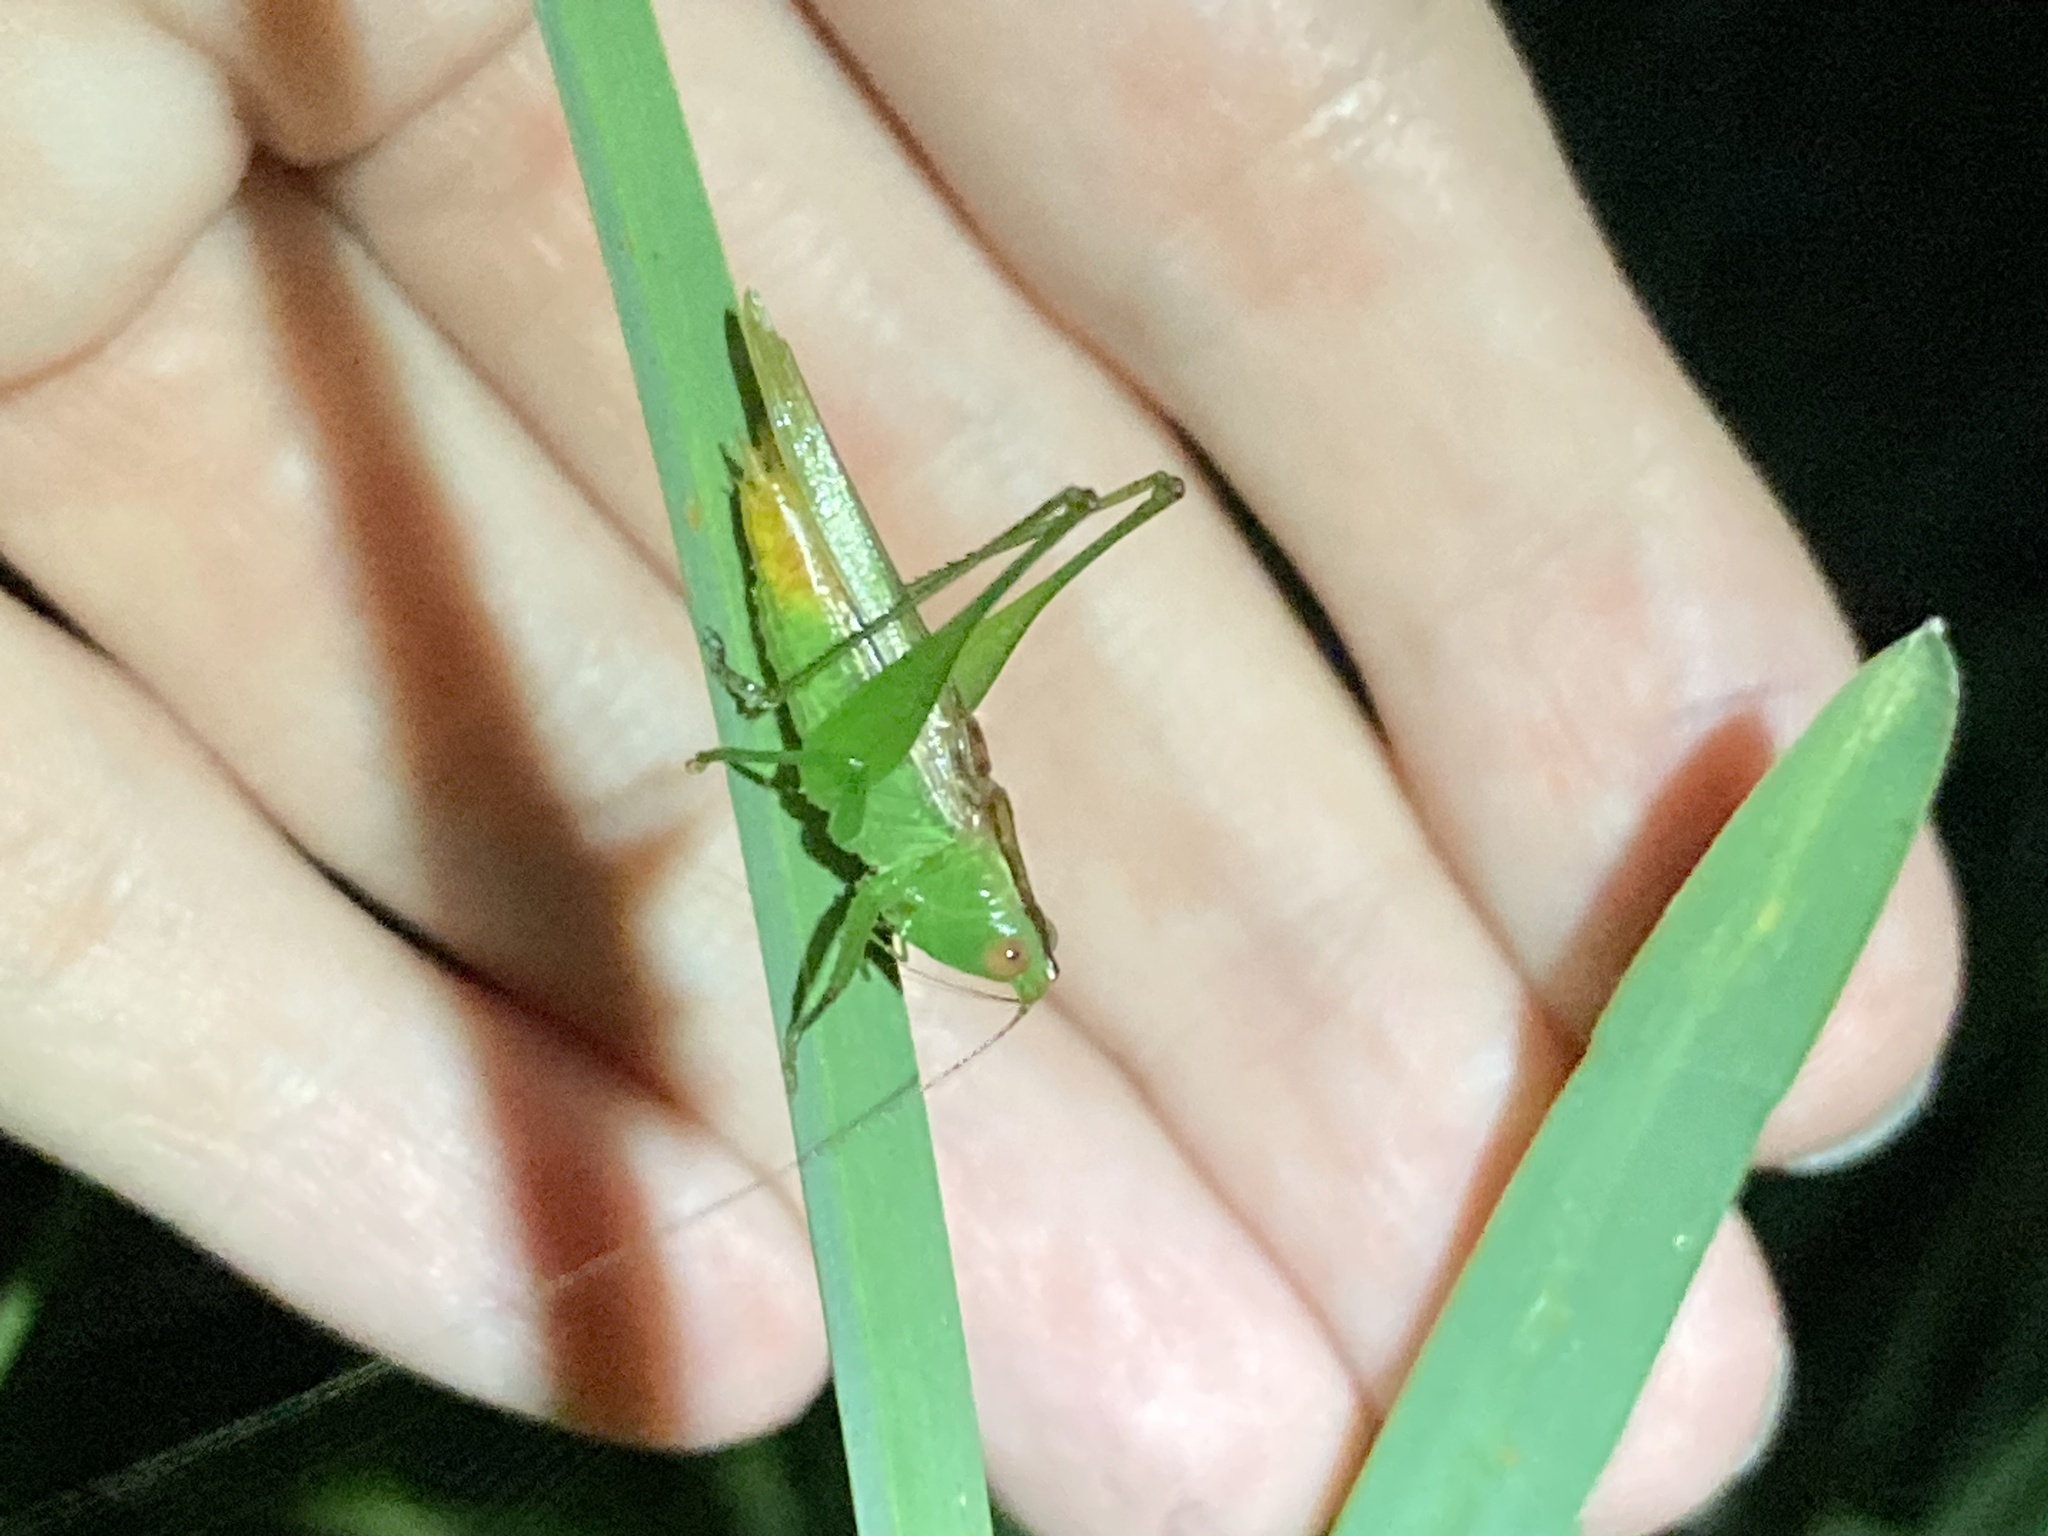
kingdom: Animalia
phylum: Arthropoda
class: Insecta
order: Orthoptera
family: Tettigoniidae
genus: Conocephalus
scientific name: Conocephalus cinereus
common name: Caribbean meadow katydid
